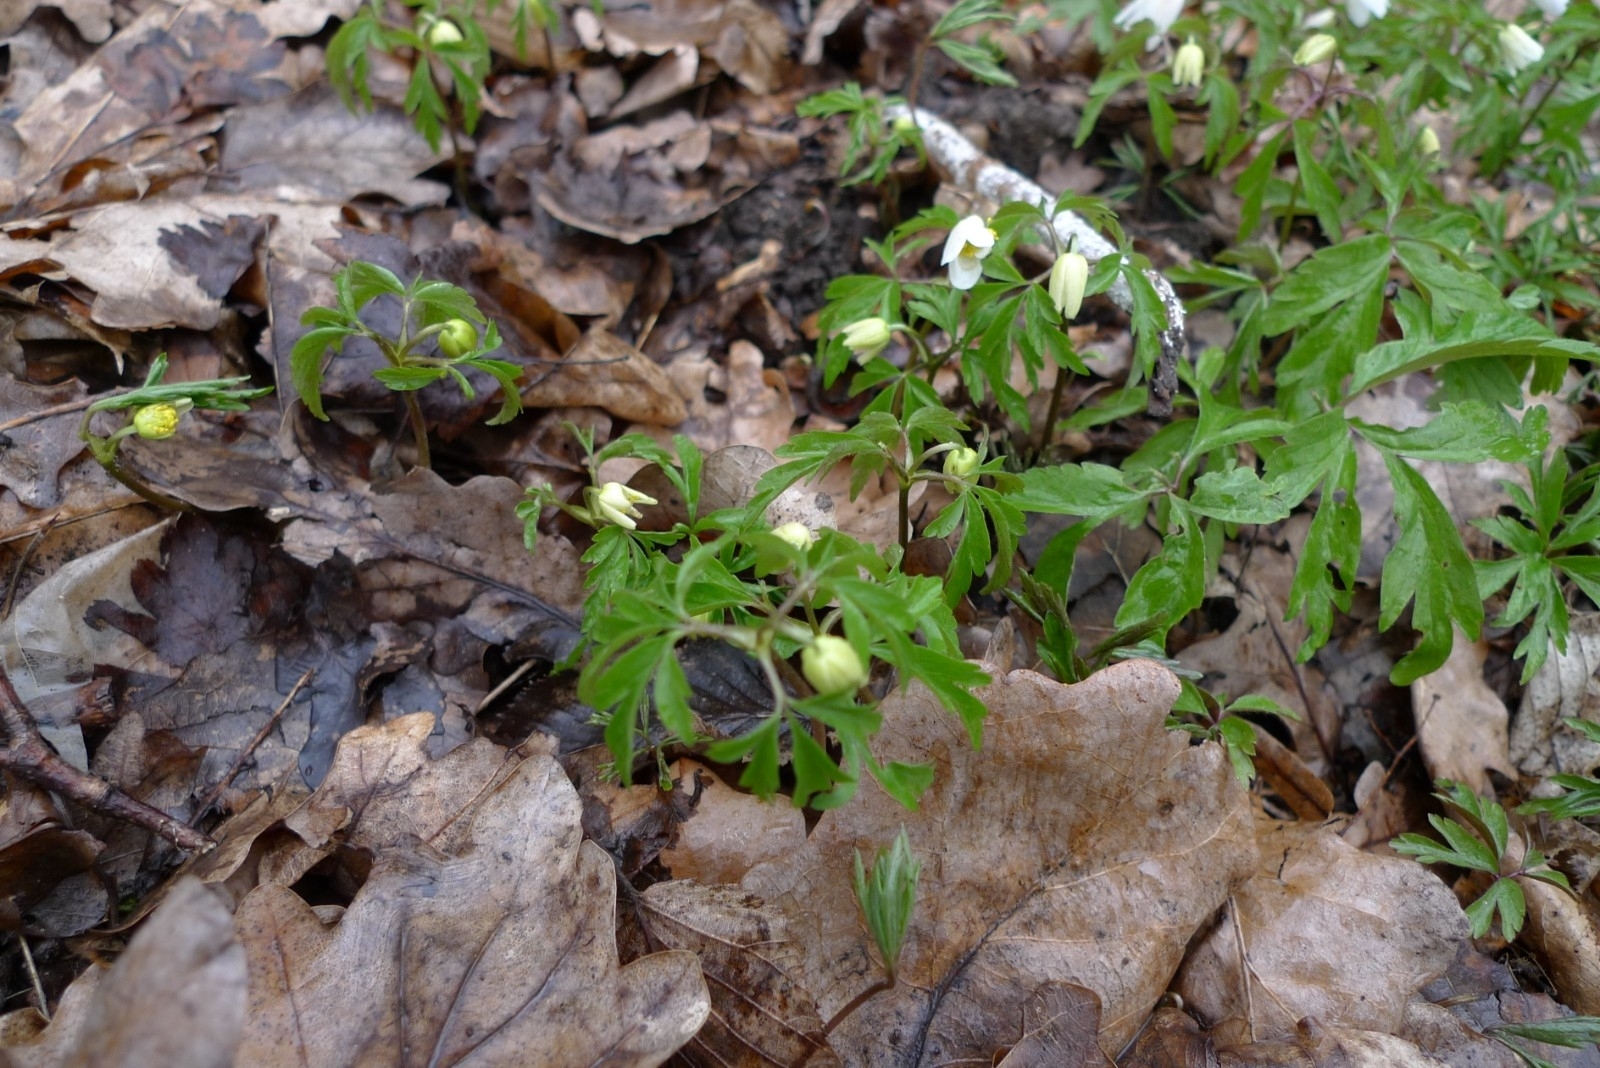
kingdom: Plantae
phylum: Tracheophyta
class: Magnoliopsida
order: Ranunculales
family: Ranunculaceae
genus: Anemone
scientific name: Anemone nemorosa
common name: Wood anemone
